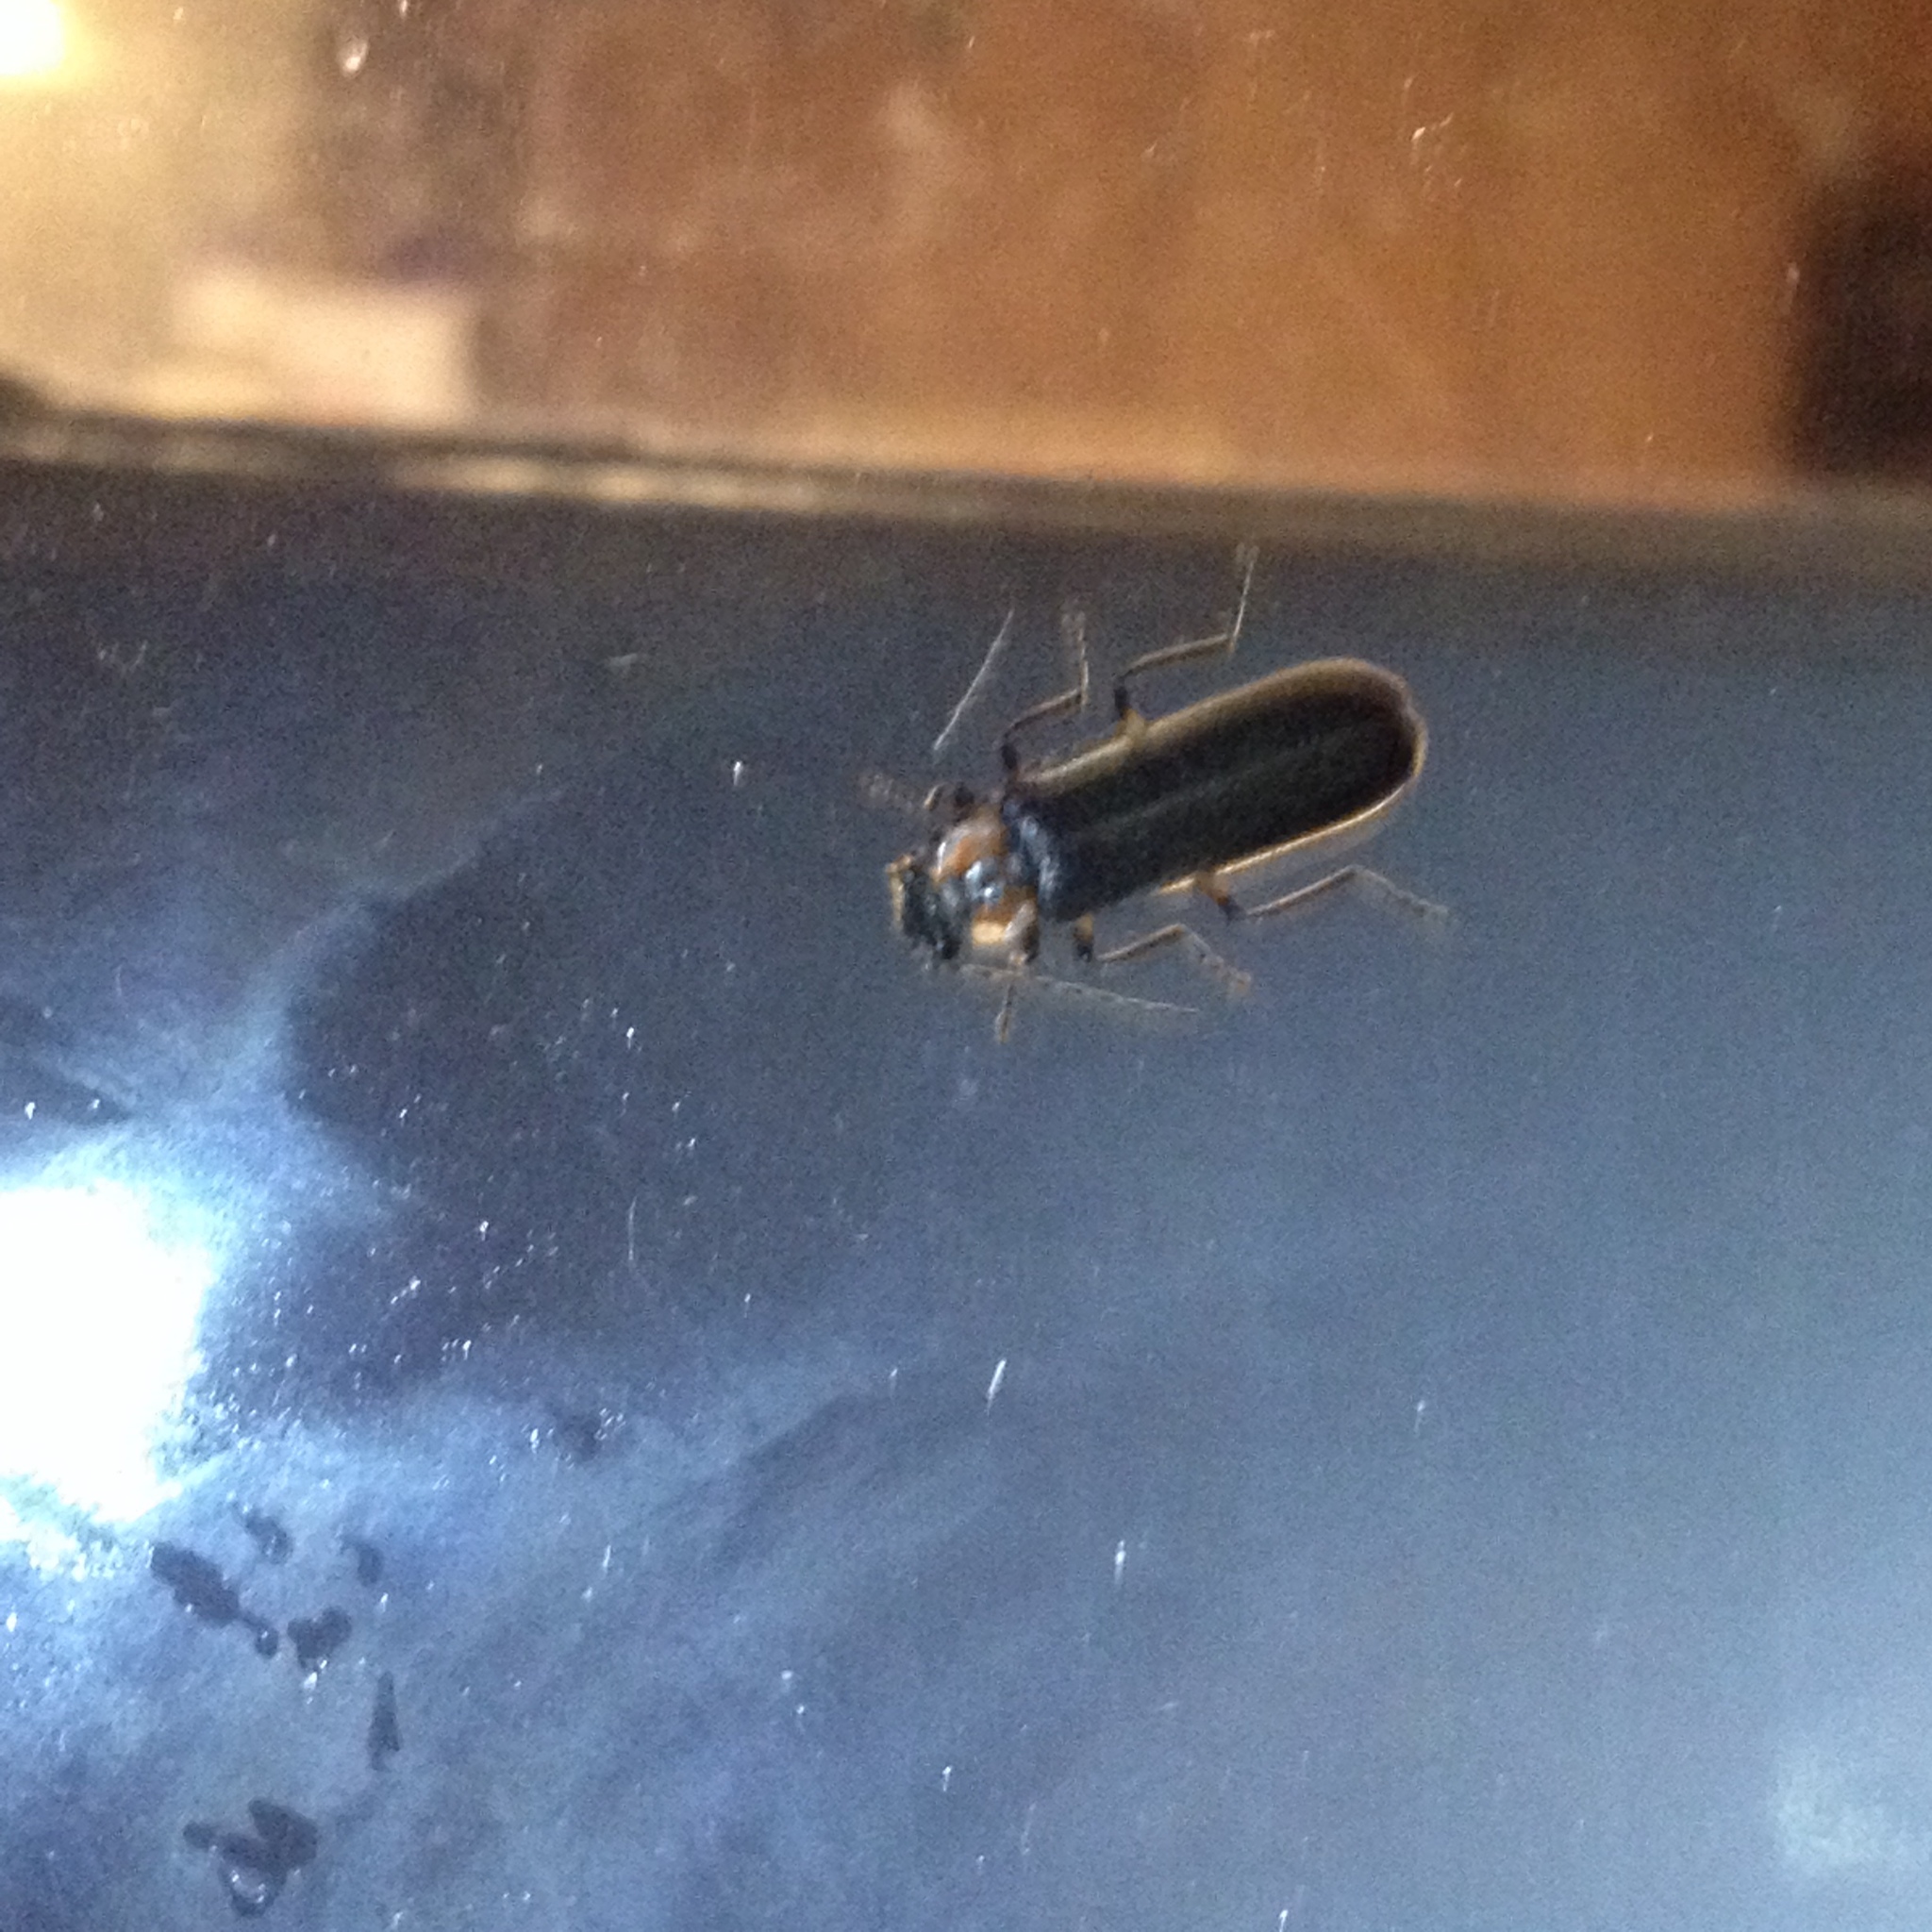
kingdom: Animalia
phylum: Arthropoda
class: Insecta
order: Coleoptera
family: Cantharidae
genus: Podabrus
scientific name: Podabrus basilaris
